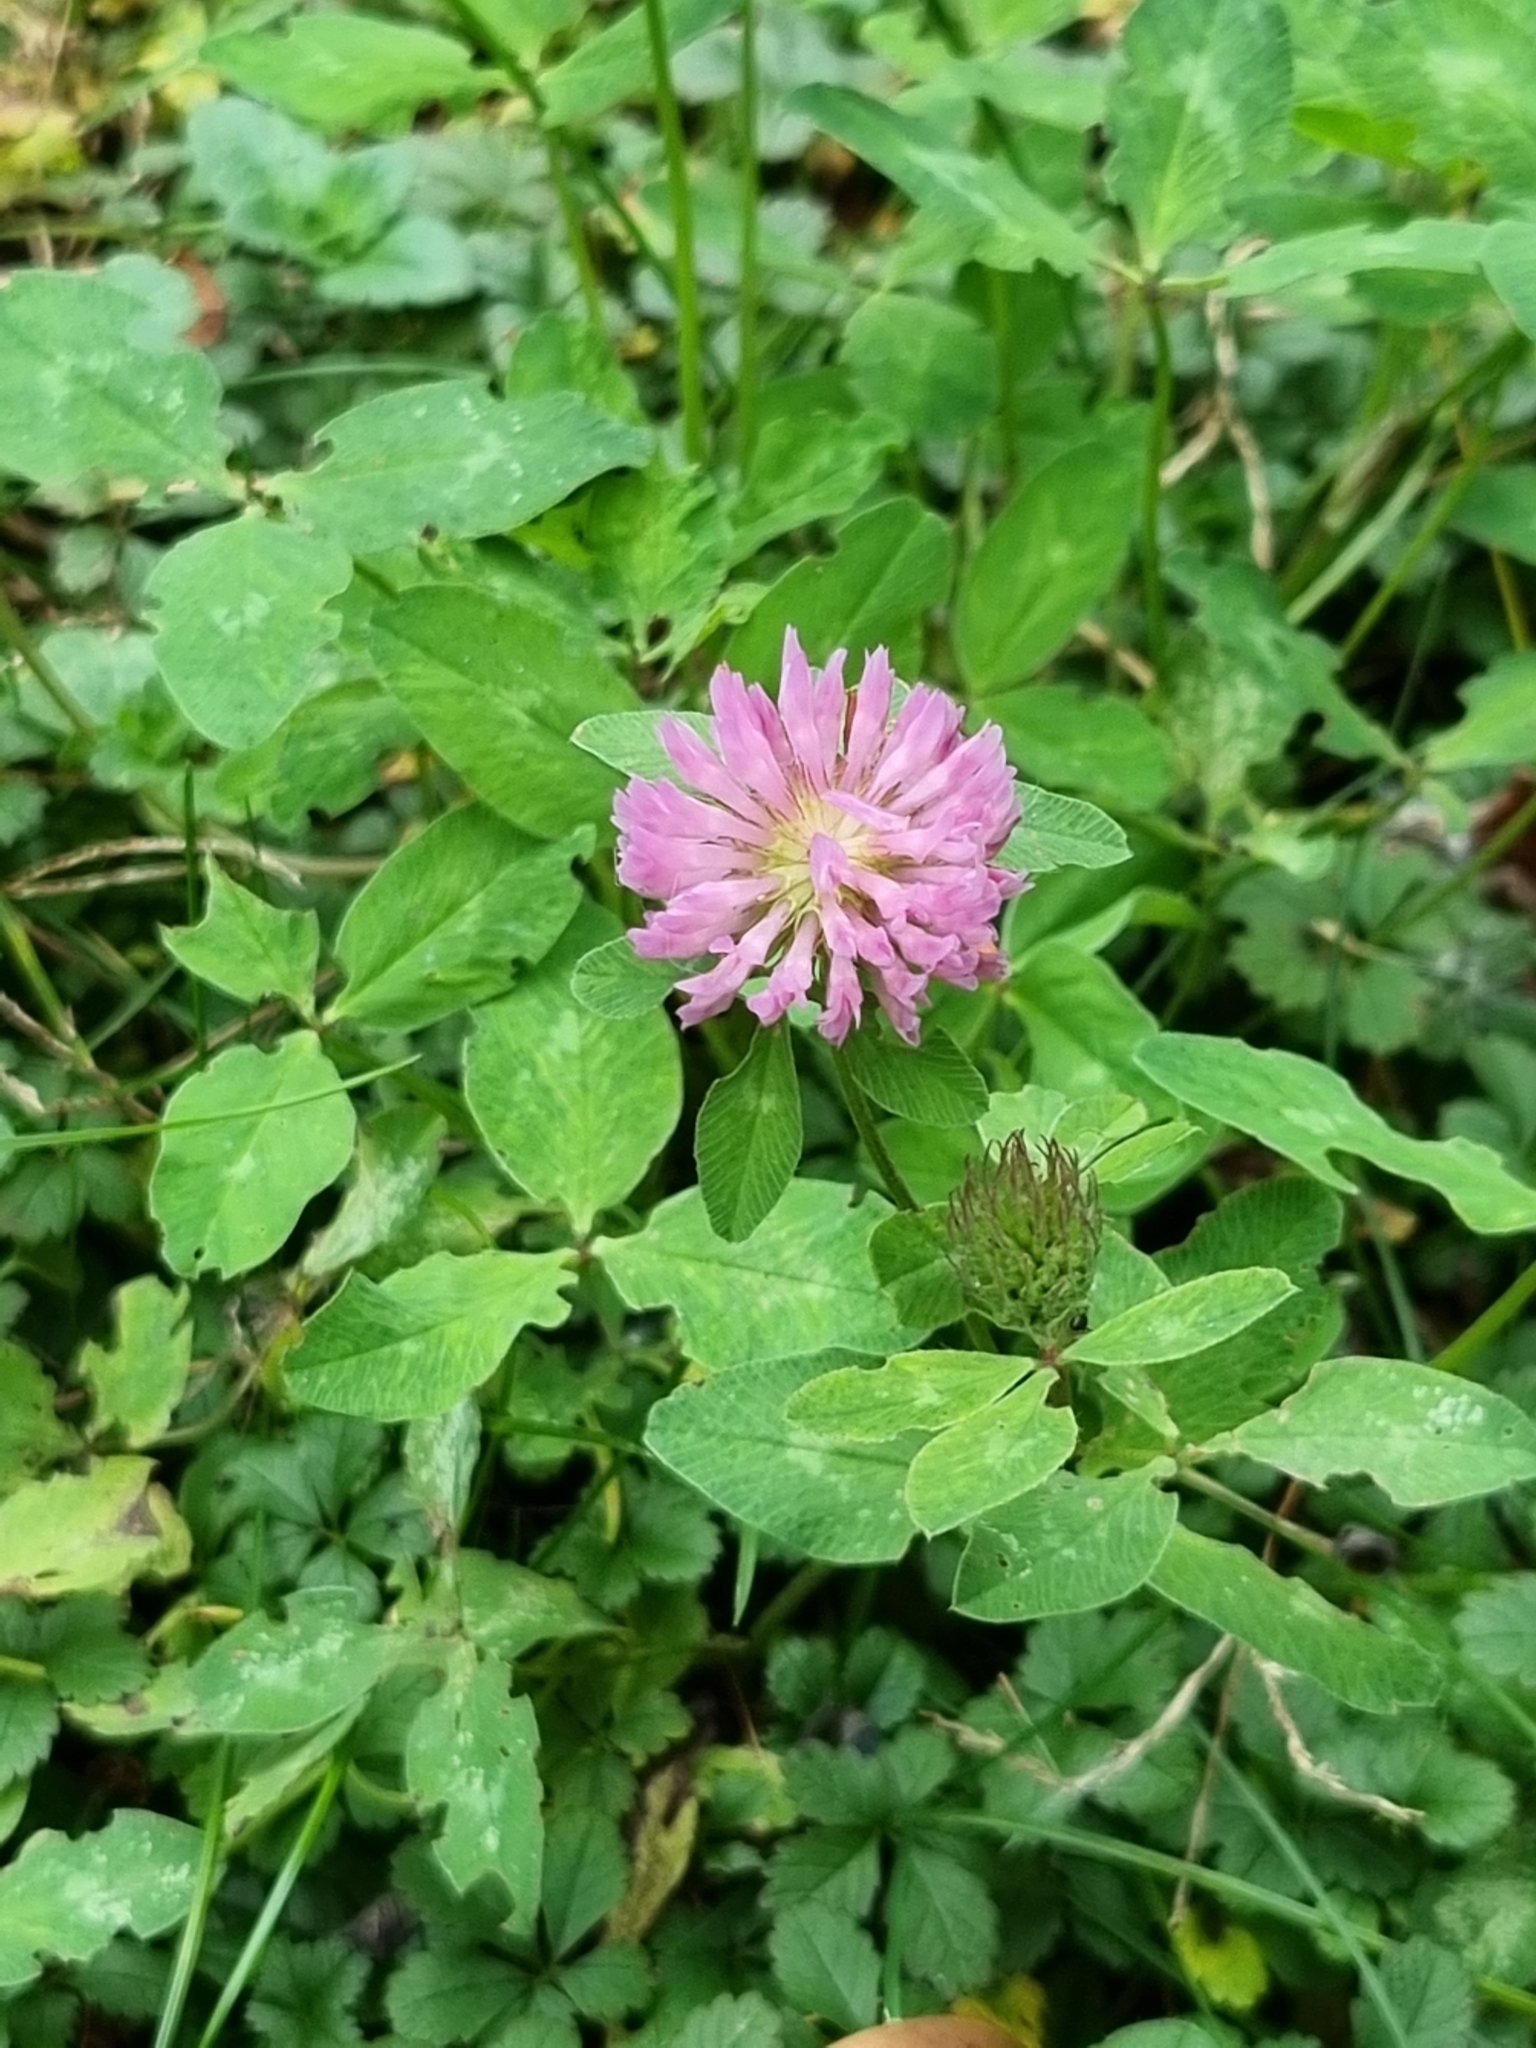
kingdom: Plantae
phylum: Tracheophyta
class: Magnoliopsida
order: Fabales
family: Fabaceae
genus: Trifolium
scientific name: Trifolium pratense
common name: Red clover
